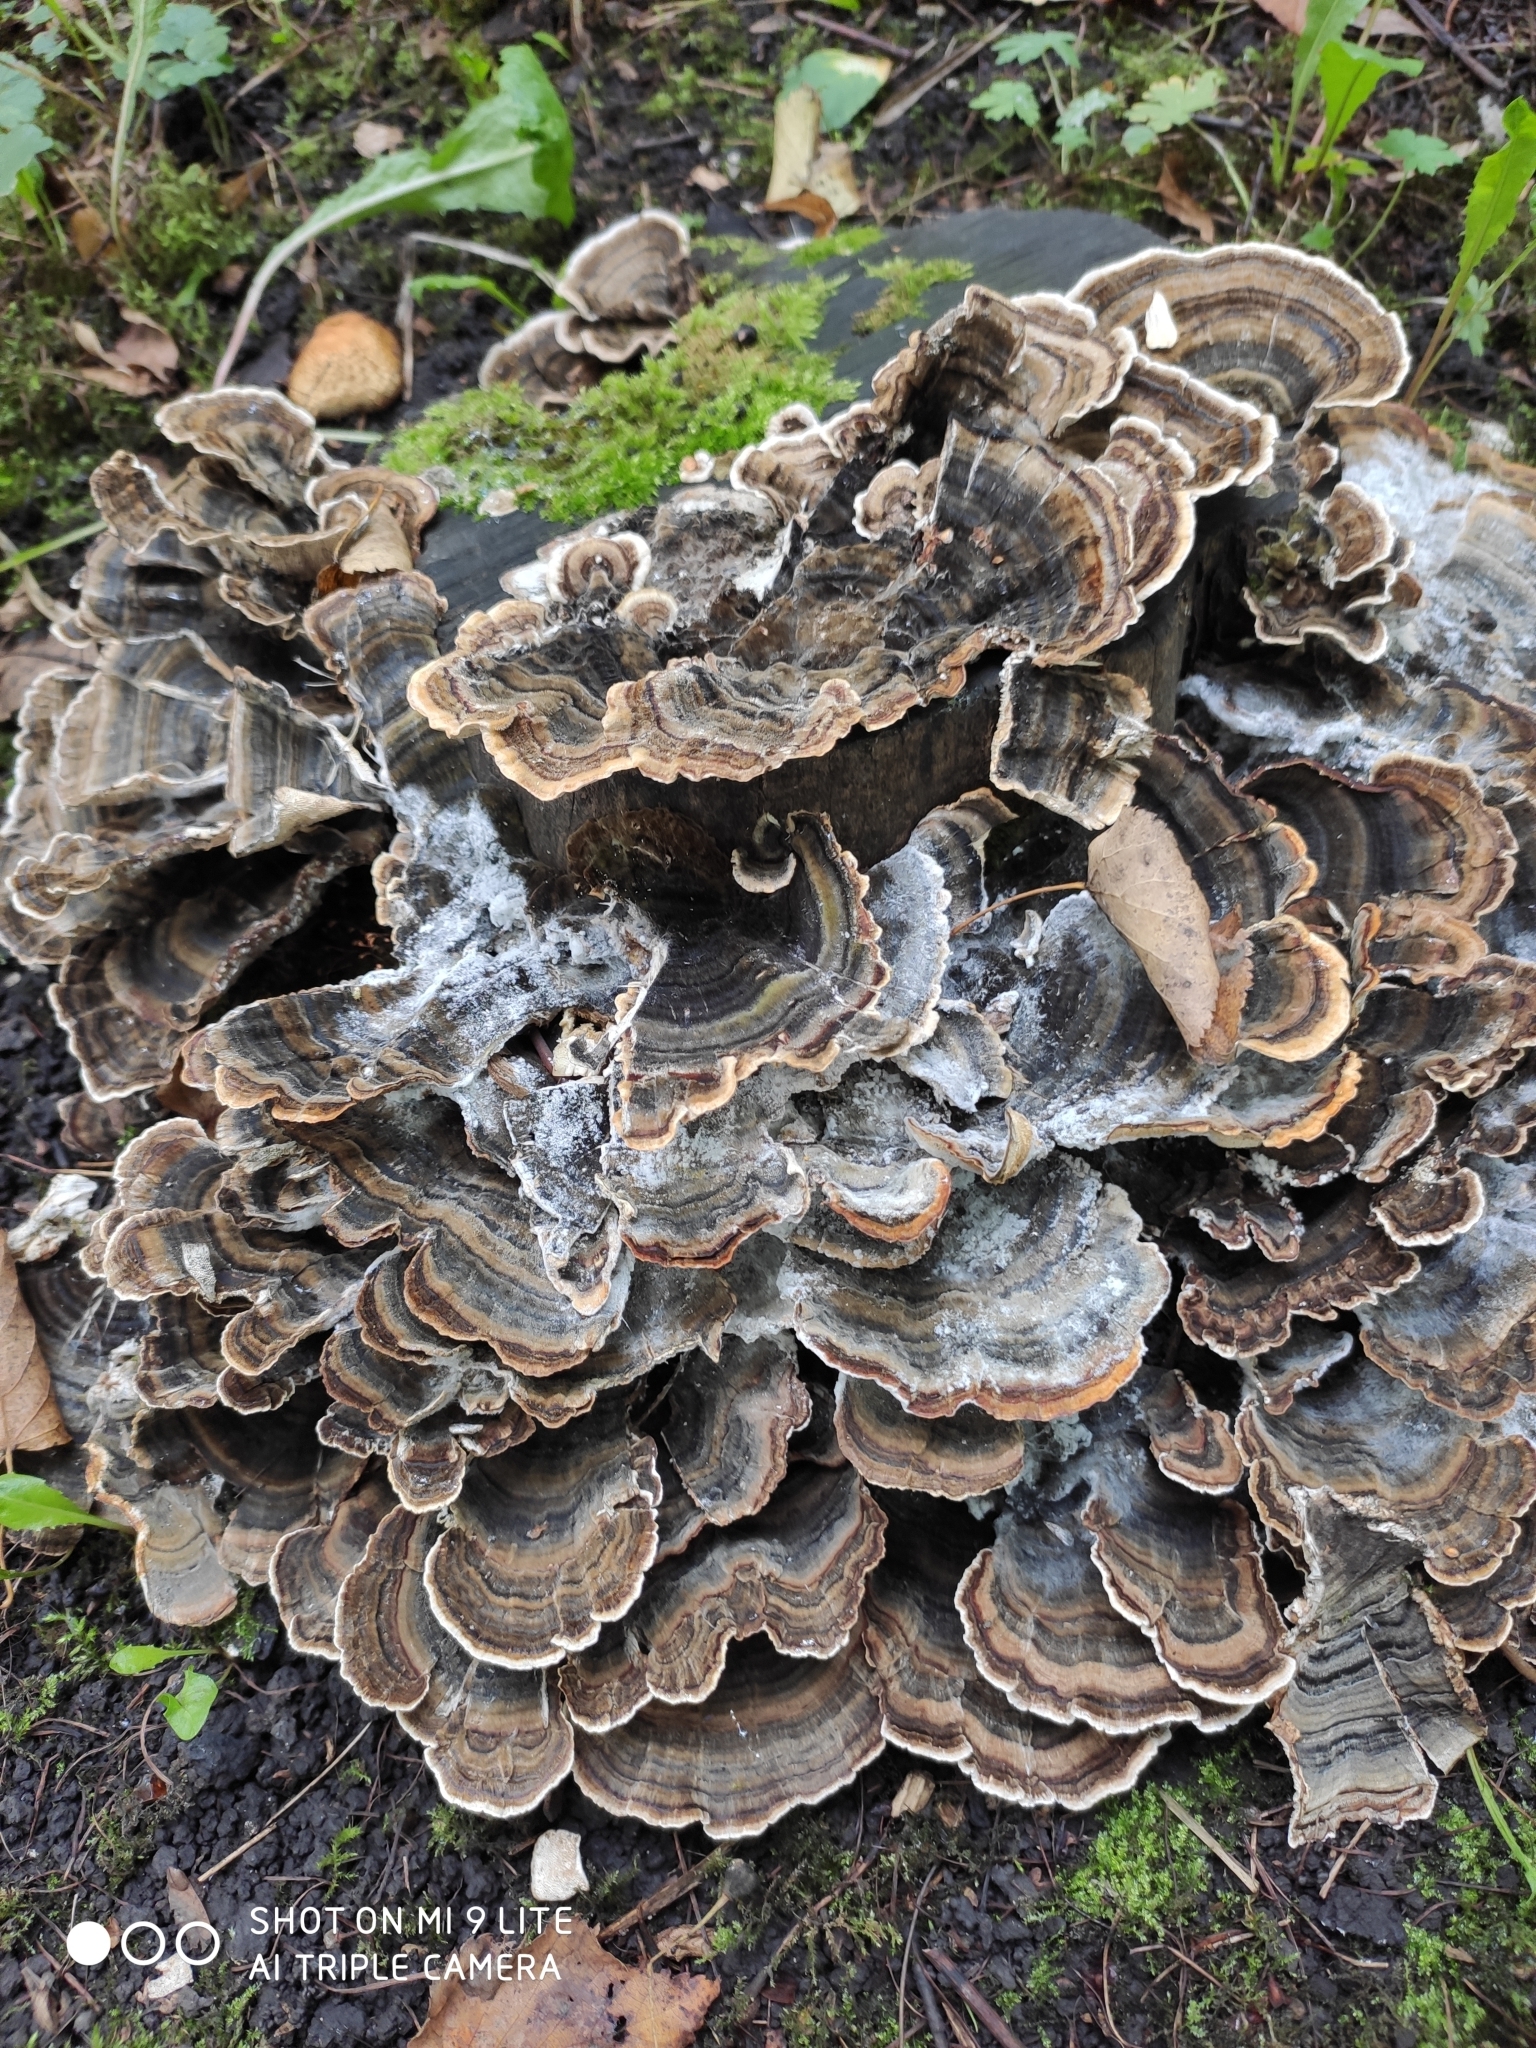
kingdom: Fungi
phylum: Basidiomycota
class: Agaricomycetes
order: Polyporales
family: Polyporaceae
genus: Trametes
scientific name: Trametes versicolor
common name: Turkeytail
